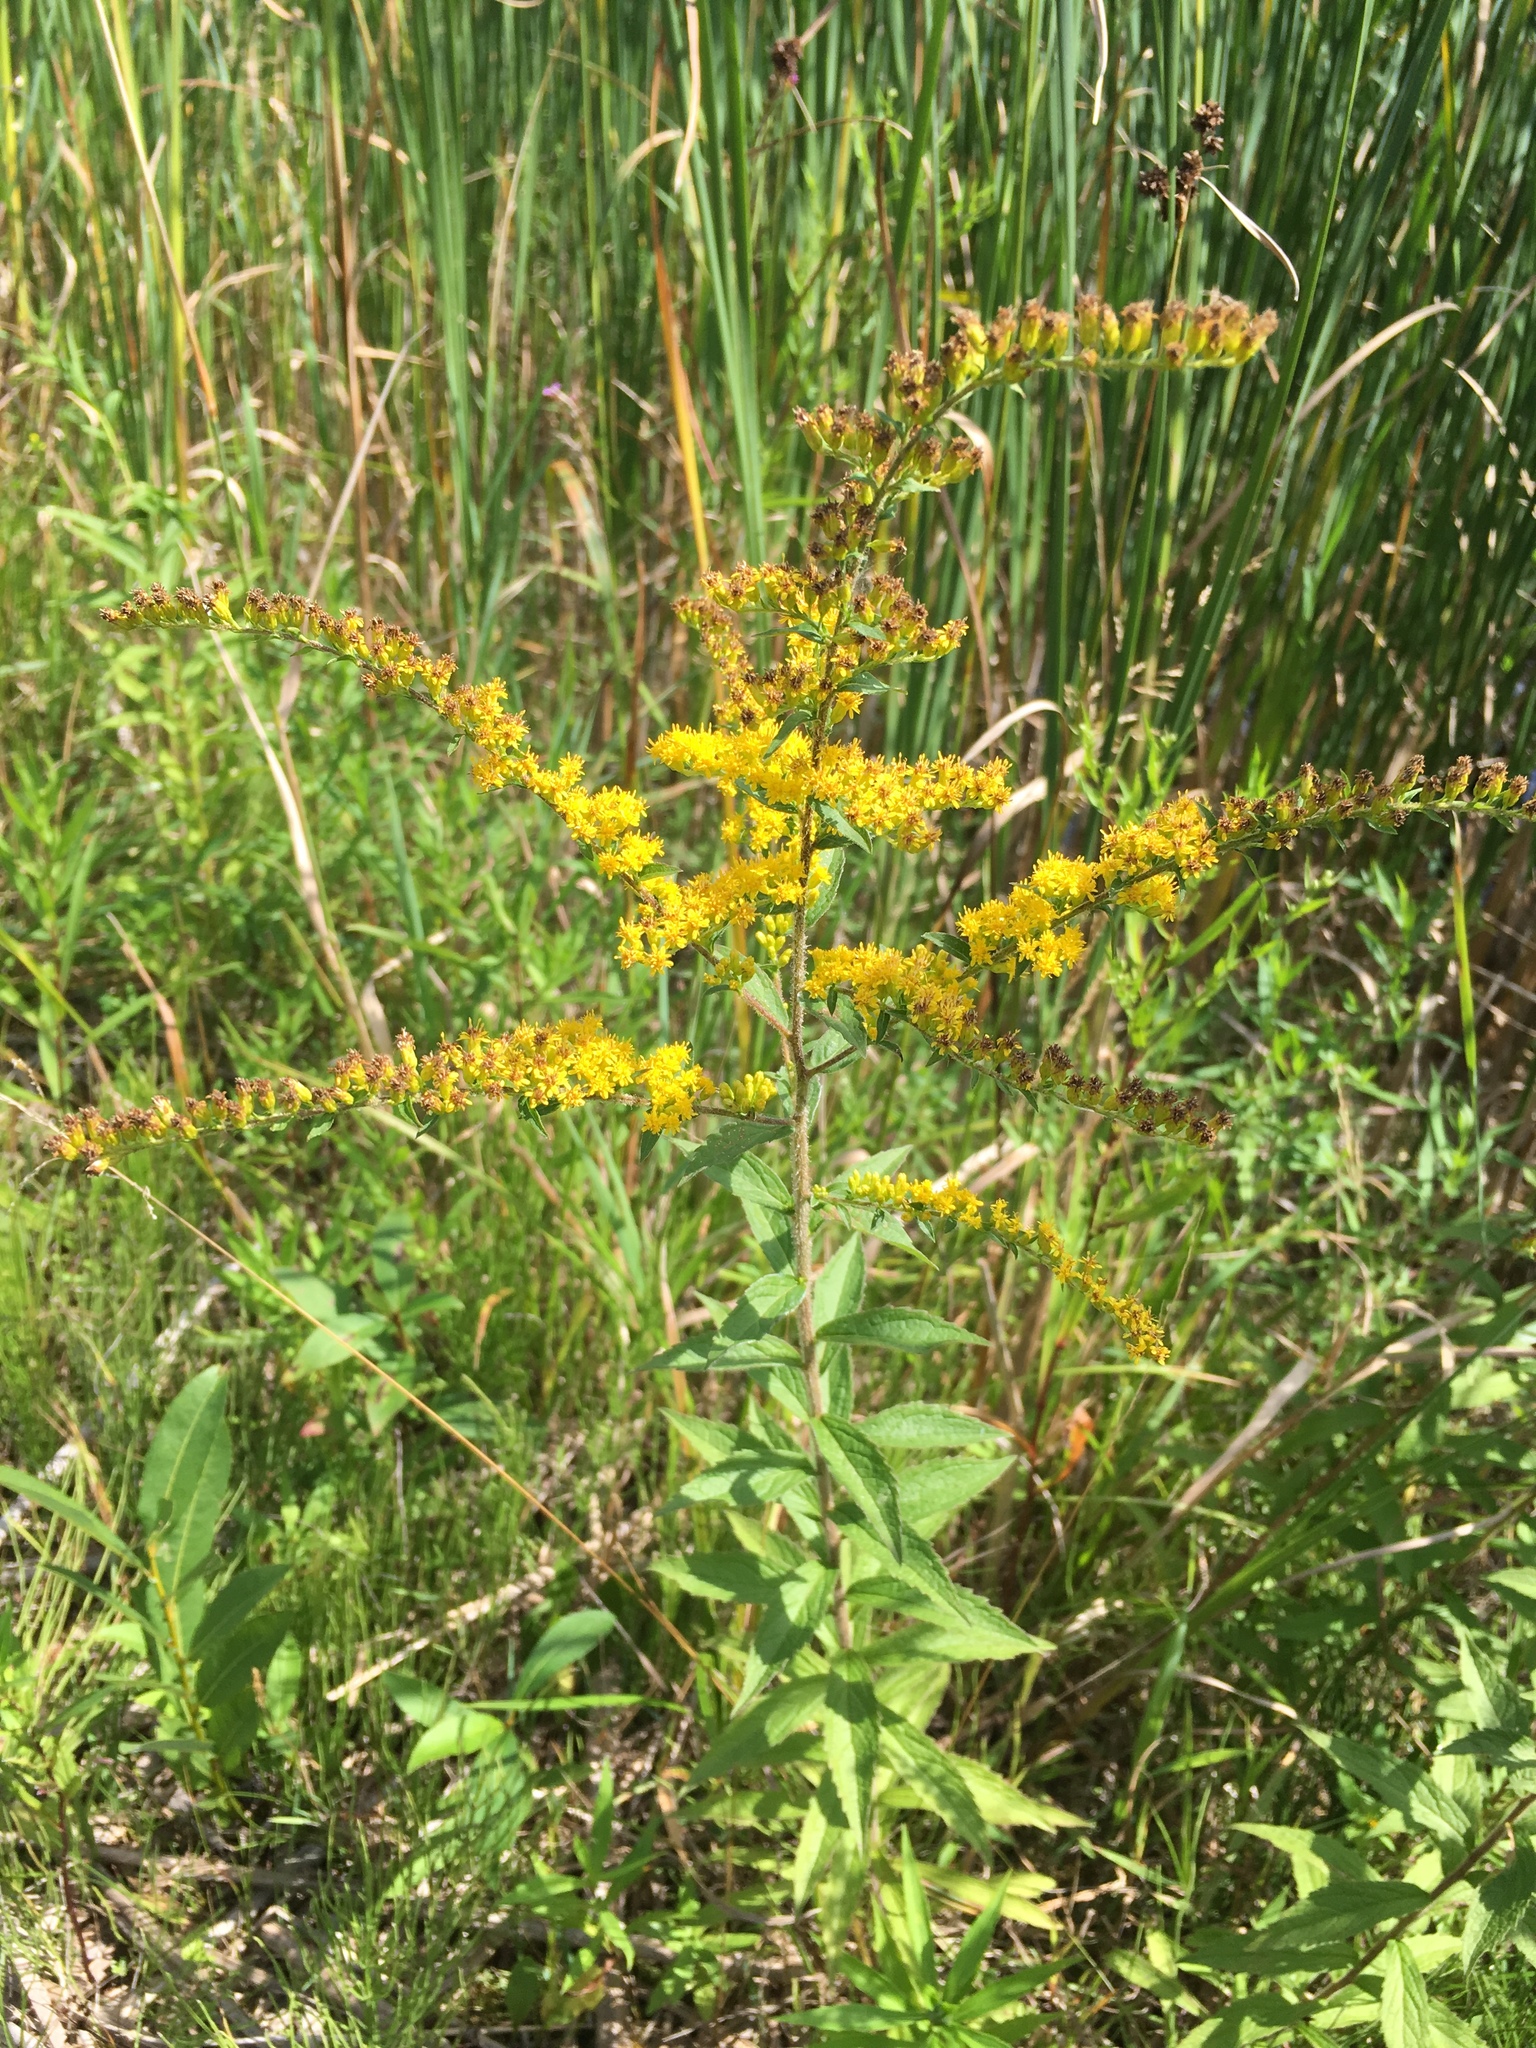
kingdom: Plantae
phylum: Tracheophyta
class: Magnoliopsida
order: Asterales
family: Asteraceae
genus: Solidago
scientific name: Solidago rugosa
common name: Rough-stemmed goldenrod
